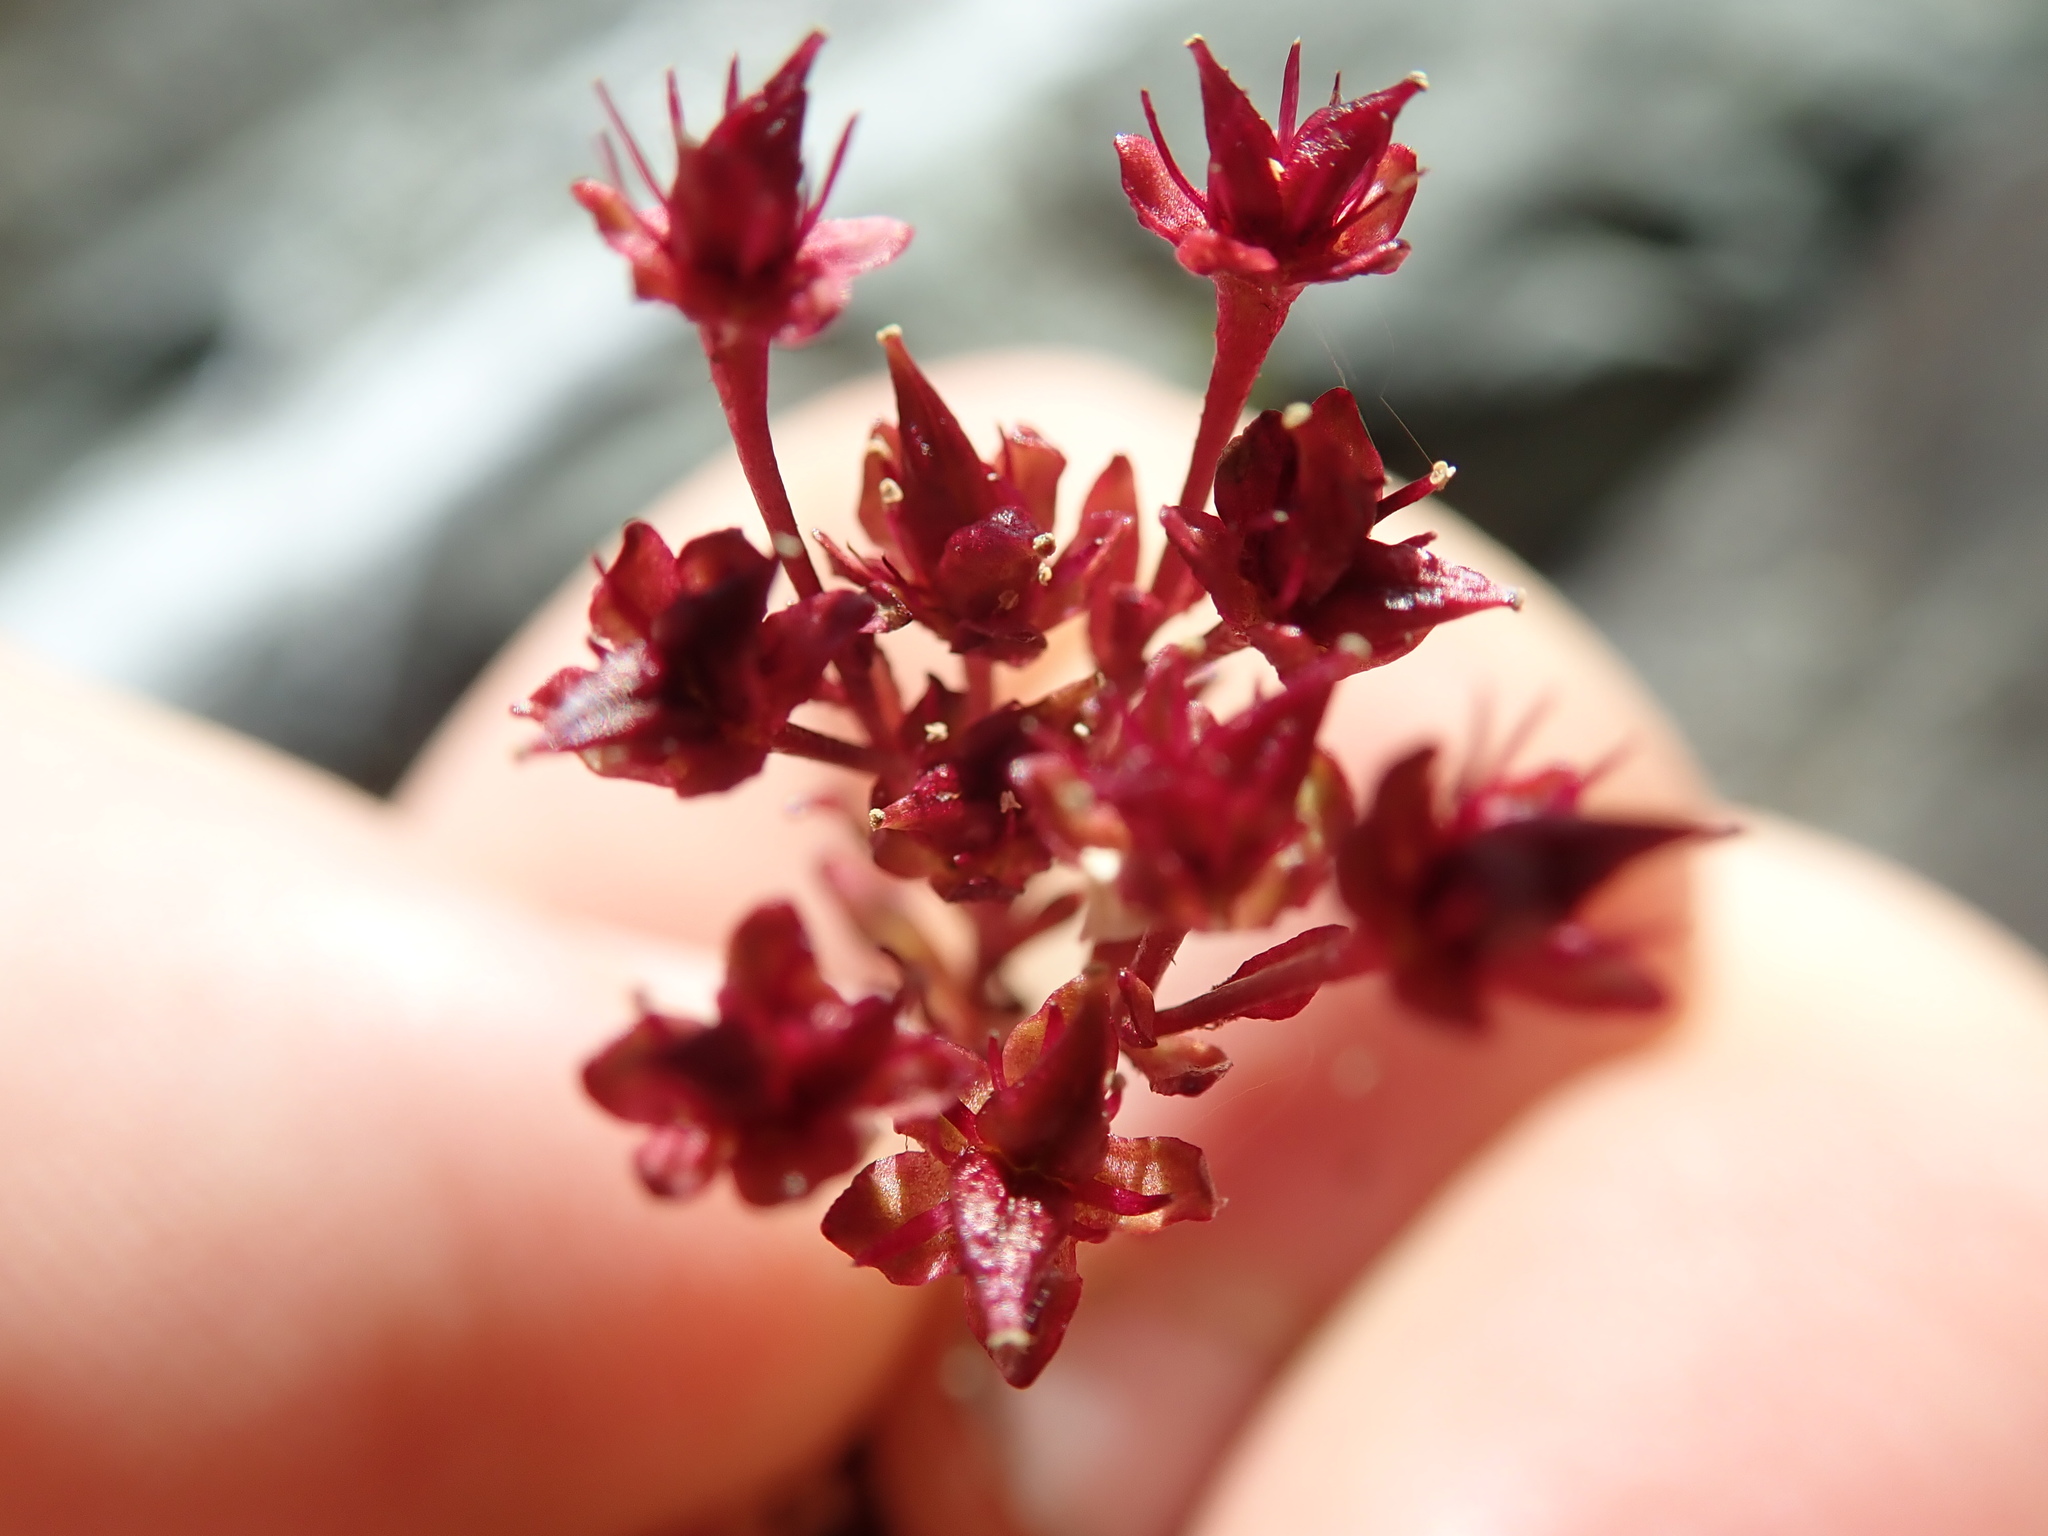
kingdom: Plantae
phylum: Tracheophyta
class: Magnoliopsida
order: Saxifragales
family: Saxifragaceae
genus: Leptarrhena
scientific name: Leptarrhena pyrolifolia
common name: Leatherleaf-saxifrage
